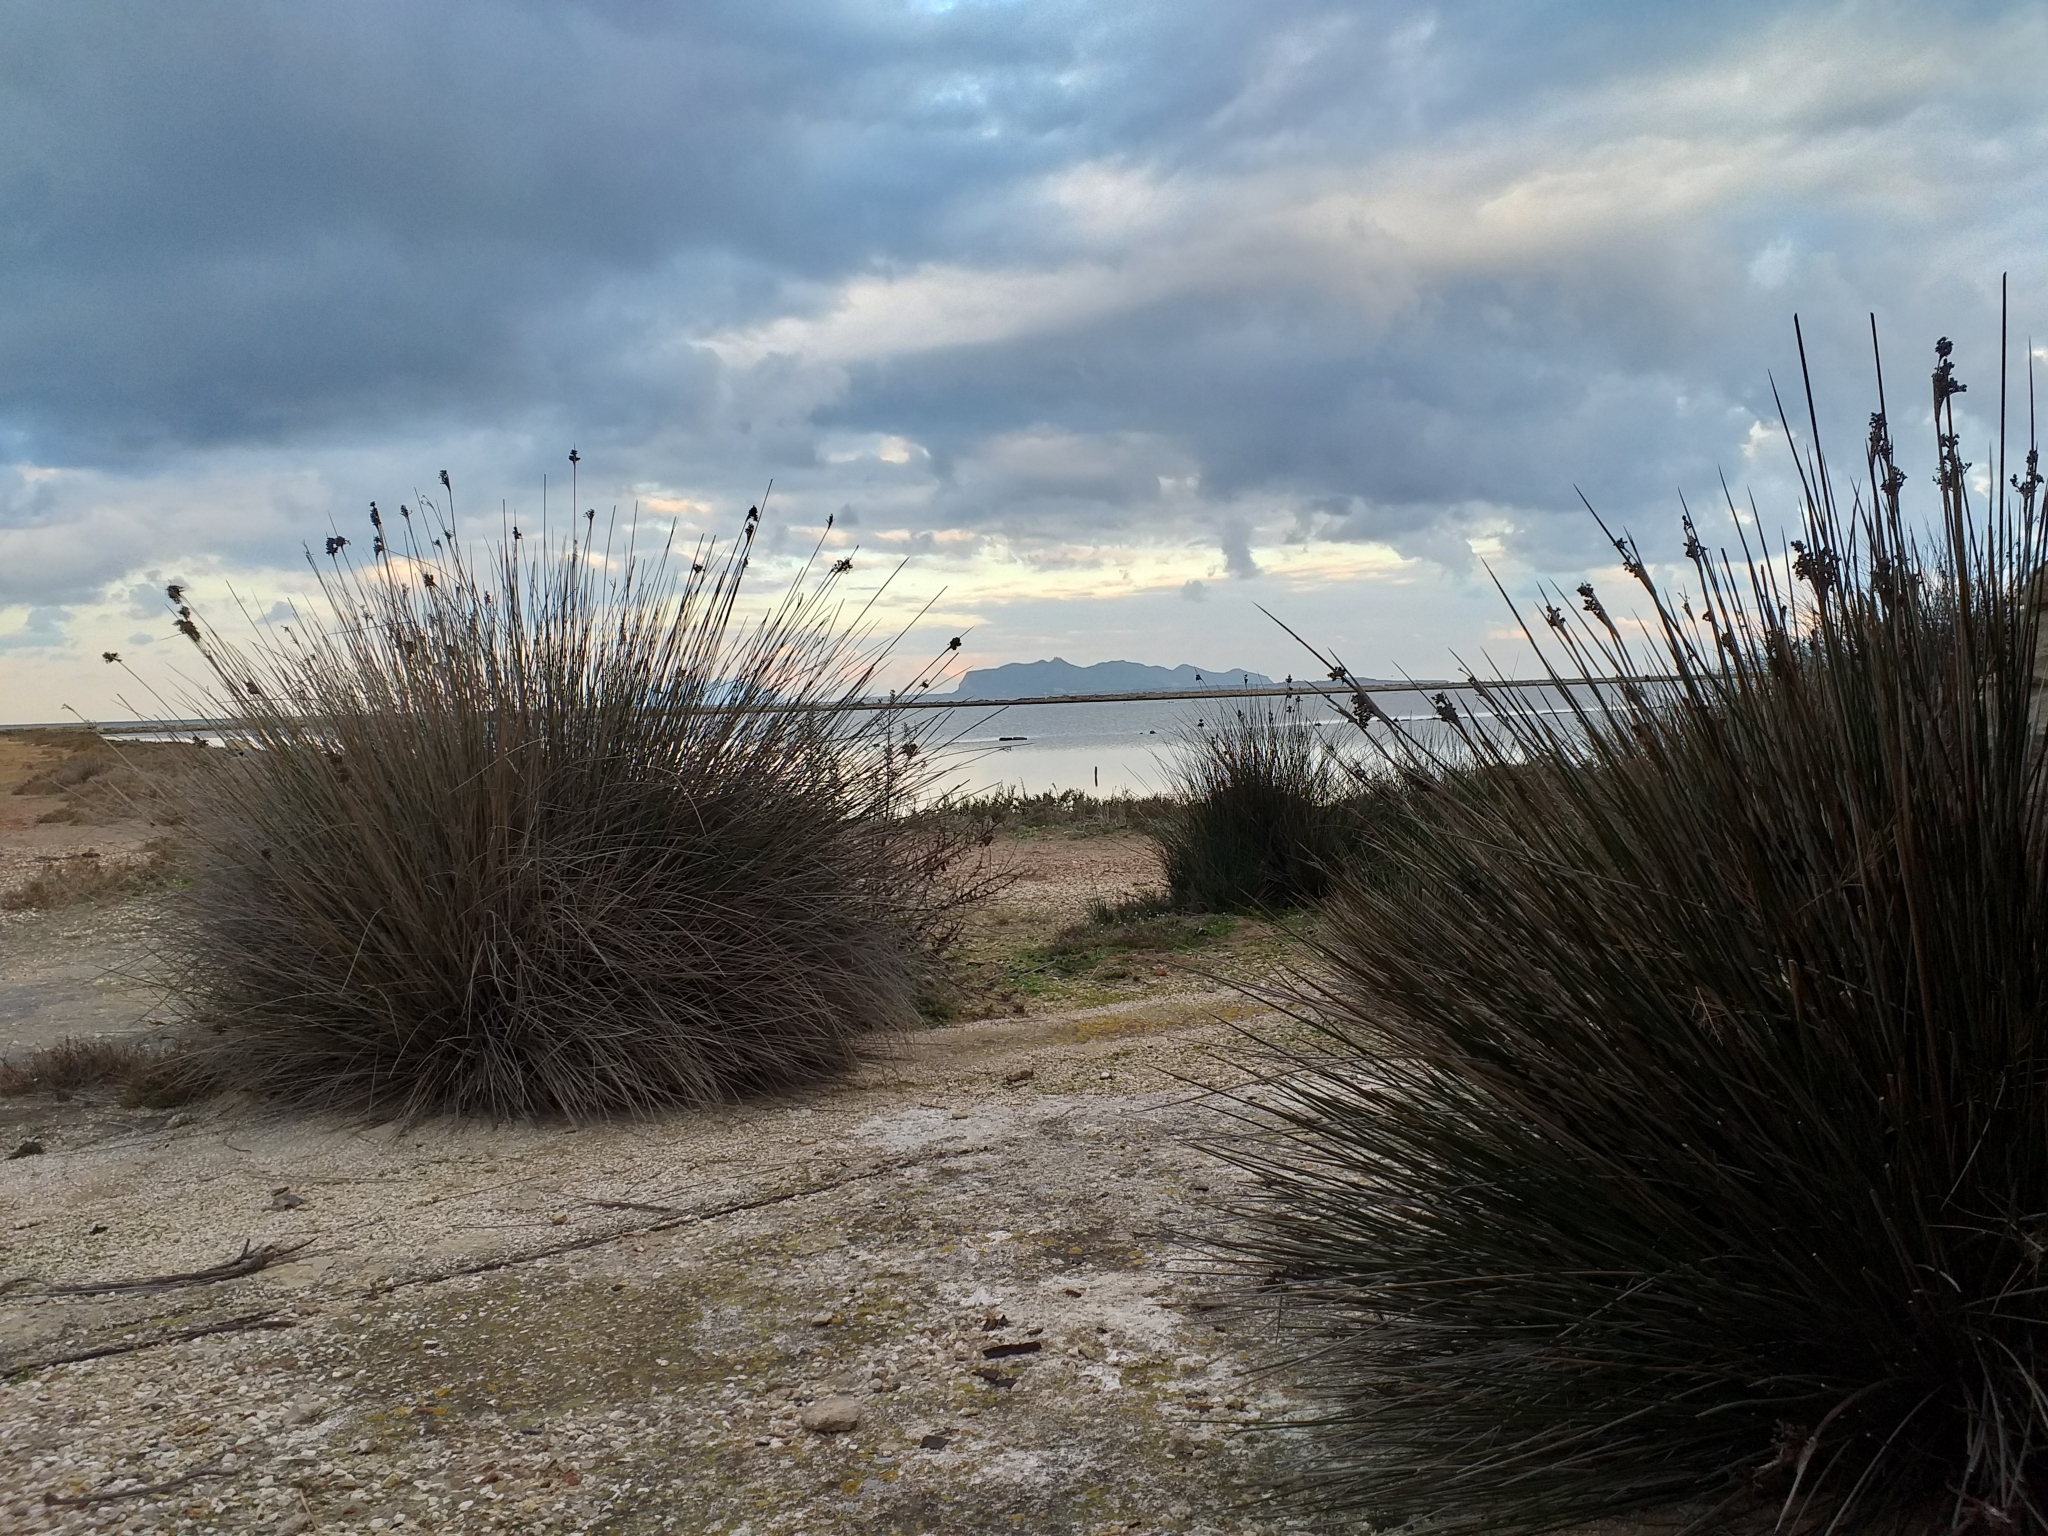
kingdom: Plantae
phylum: Tracheophyta
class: Liliopsida
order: Poales
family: Juncaceae
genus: Juncus
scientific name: Juncus acutus
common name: Sharp rush
